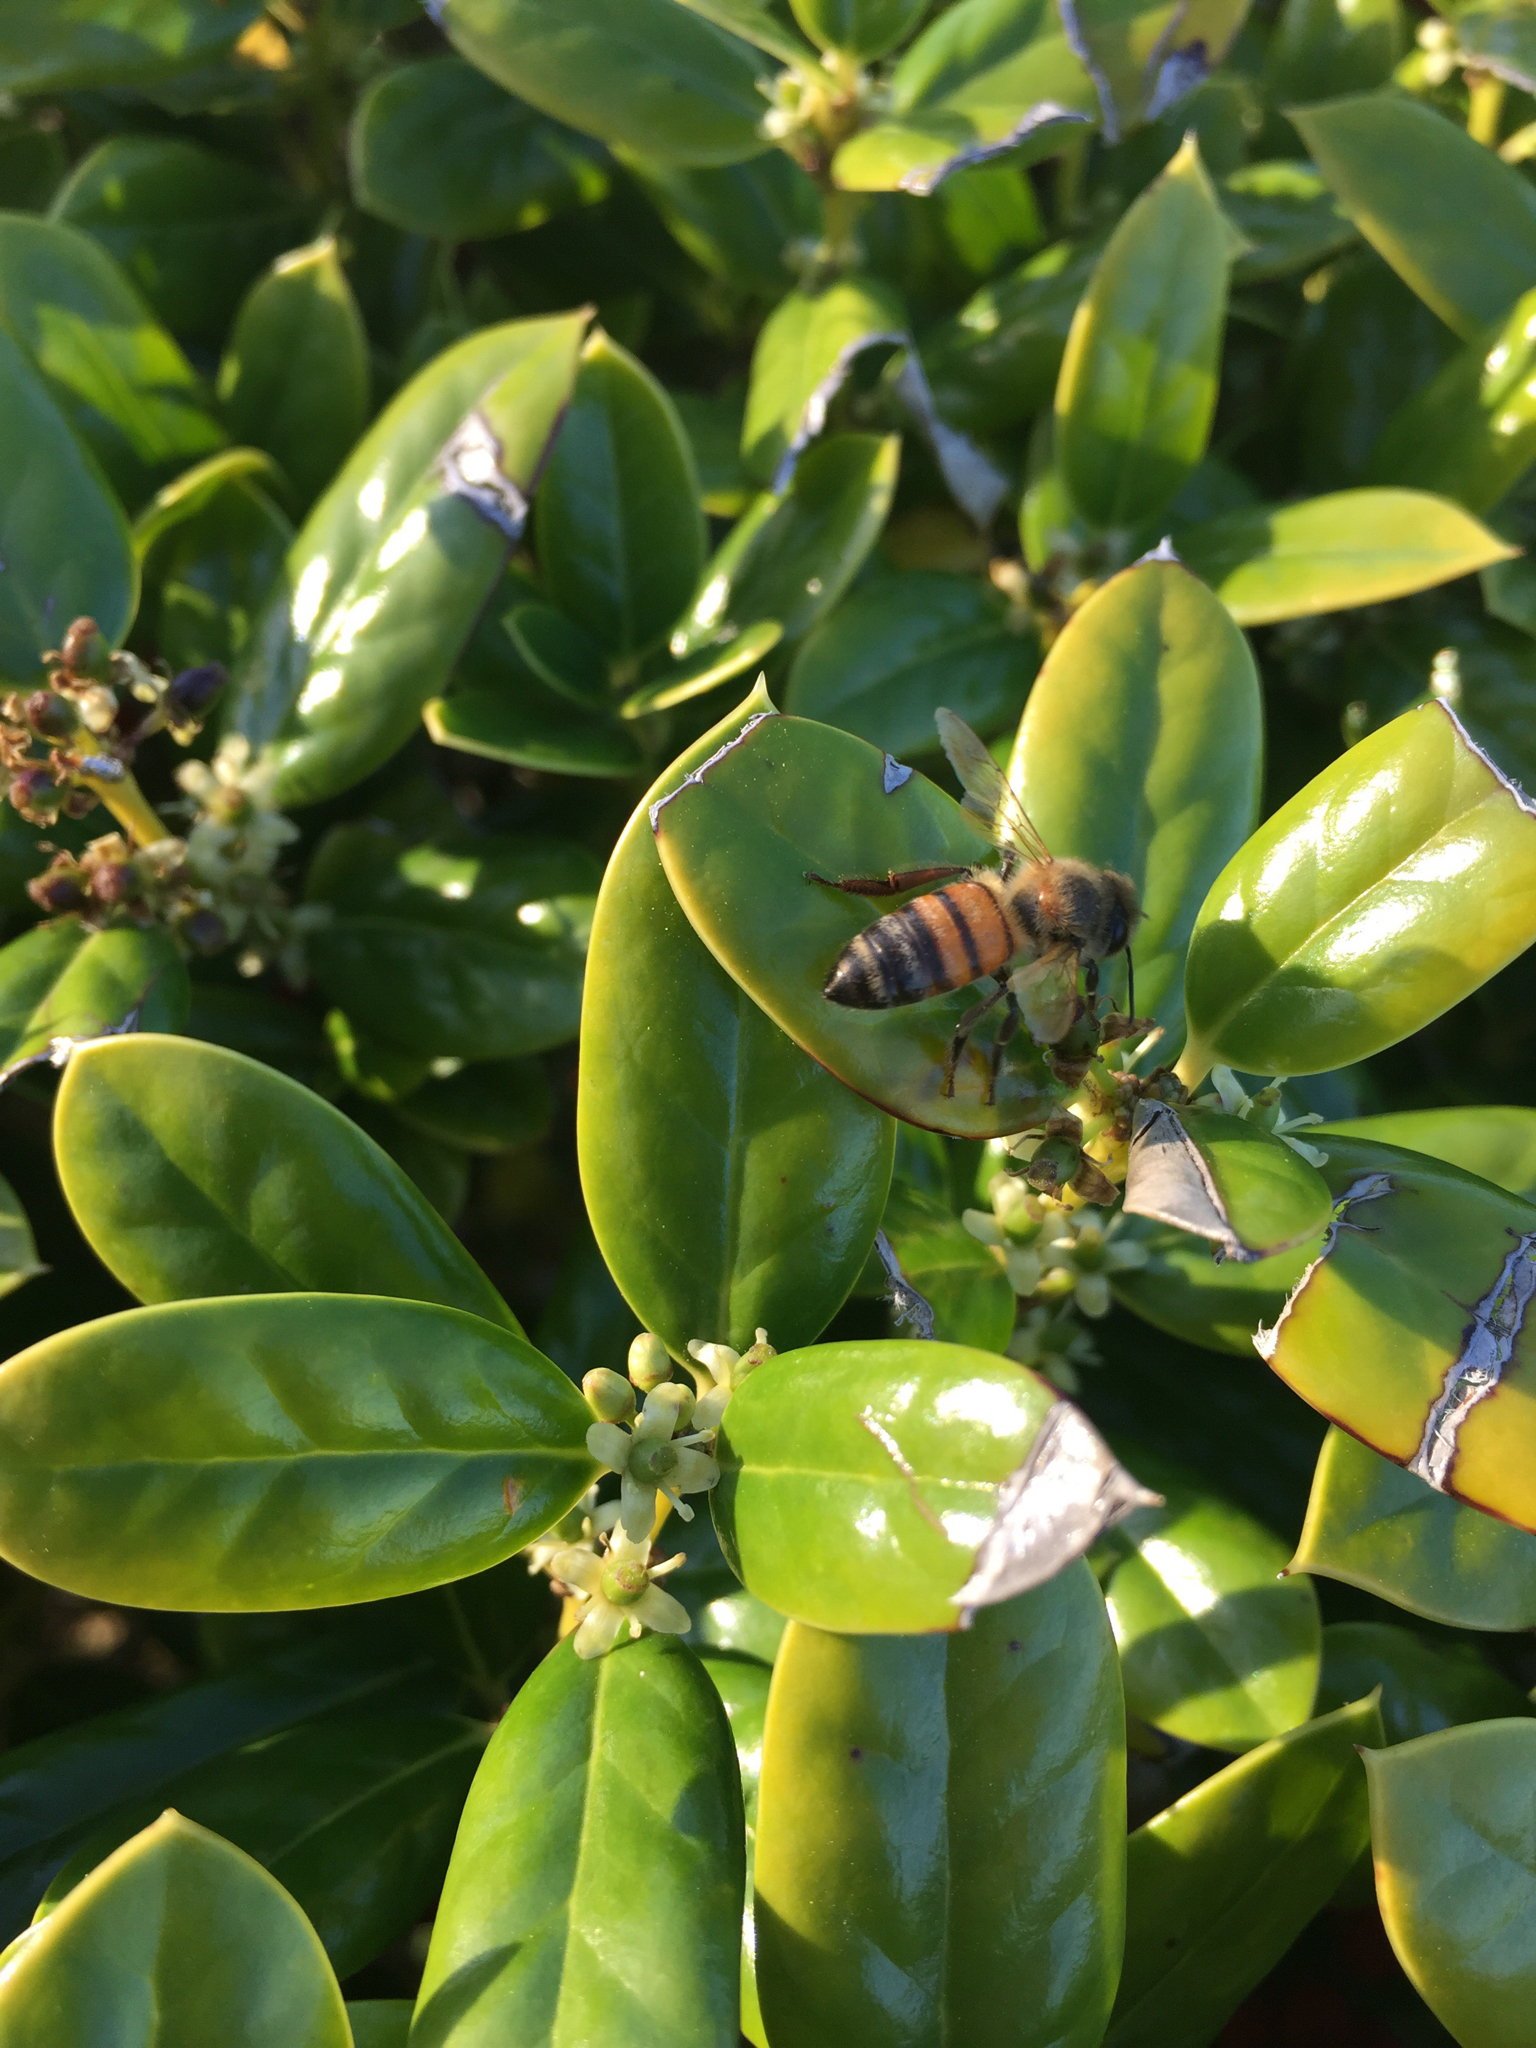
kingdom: Animalia
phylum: Arthropoda
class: Insecta
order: Hymenoptera
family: Apidae
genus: Apis
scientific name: Apis mellifera
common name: Honey bee
